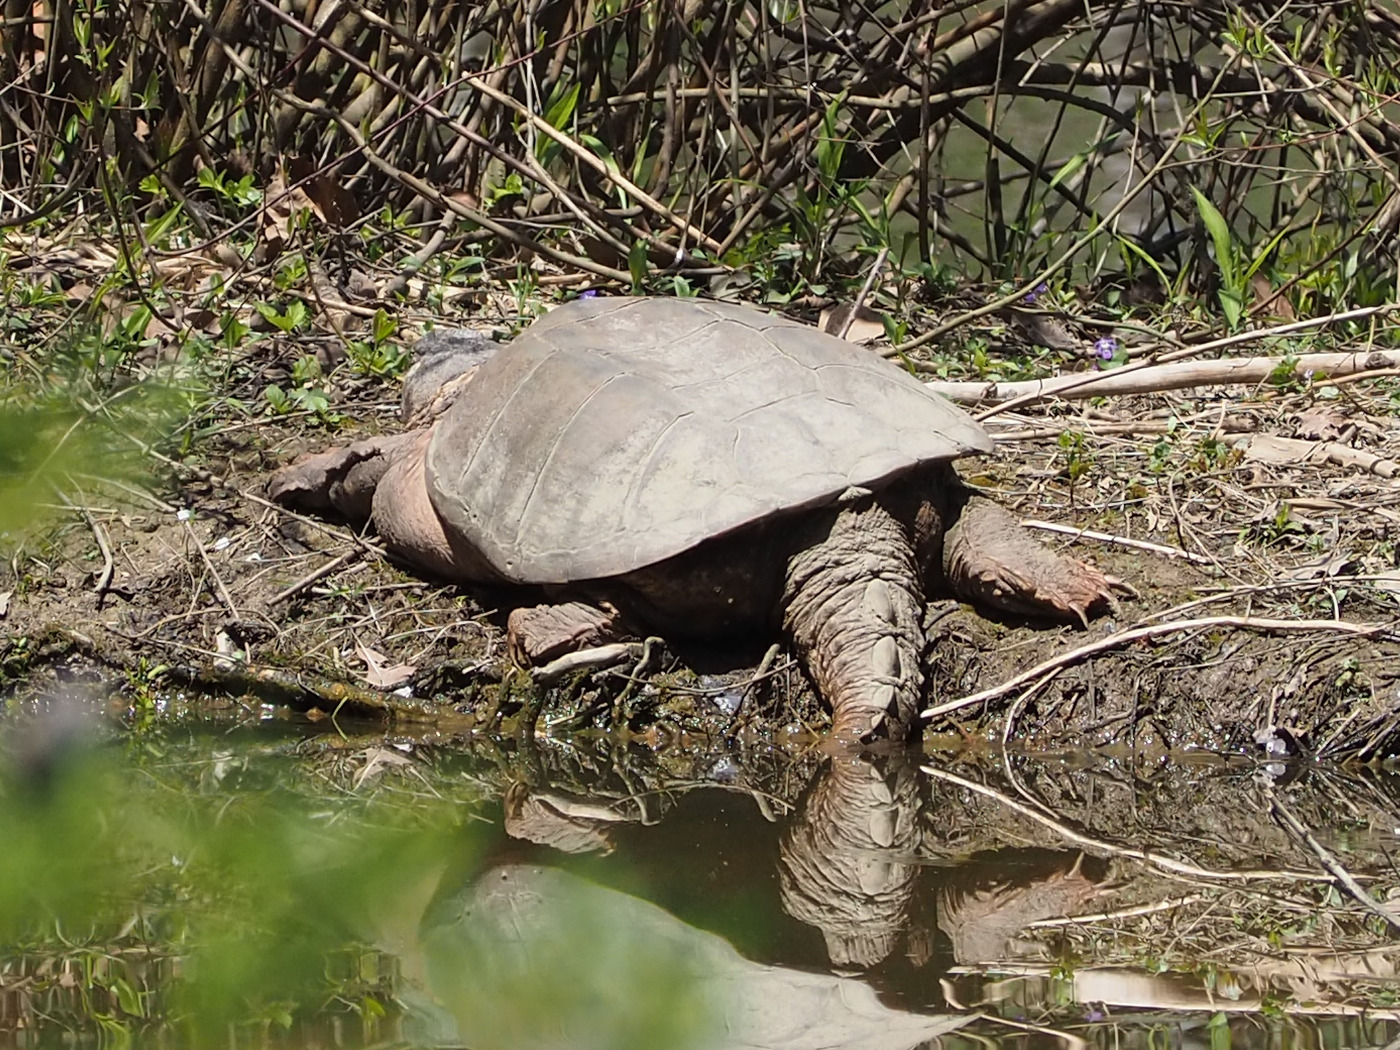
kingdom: Animalia
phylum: Chordata
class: Testudines
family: Chelydridae
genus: Chelydra
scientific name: Chelydra serpentina
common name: Common snapping turtle
